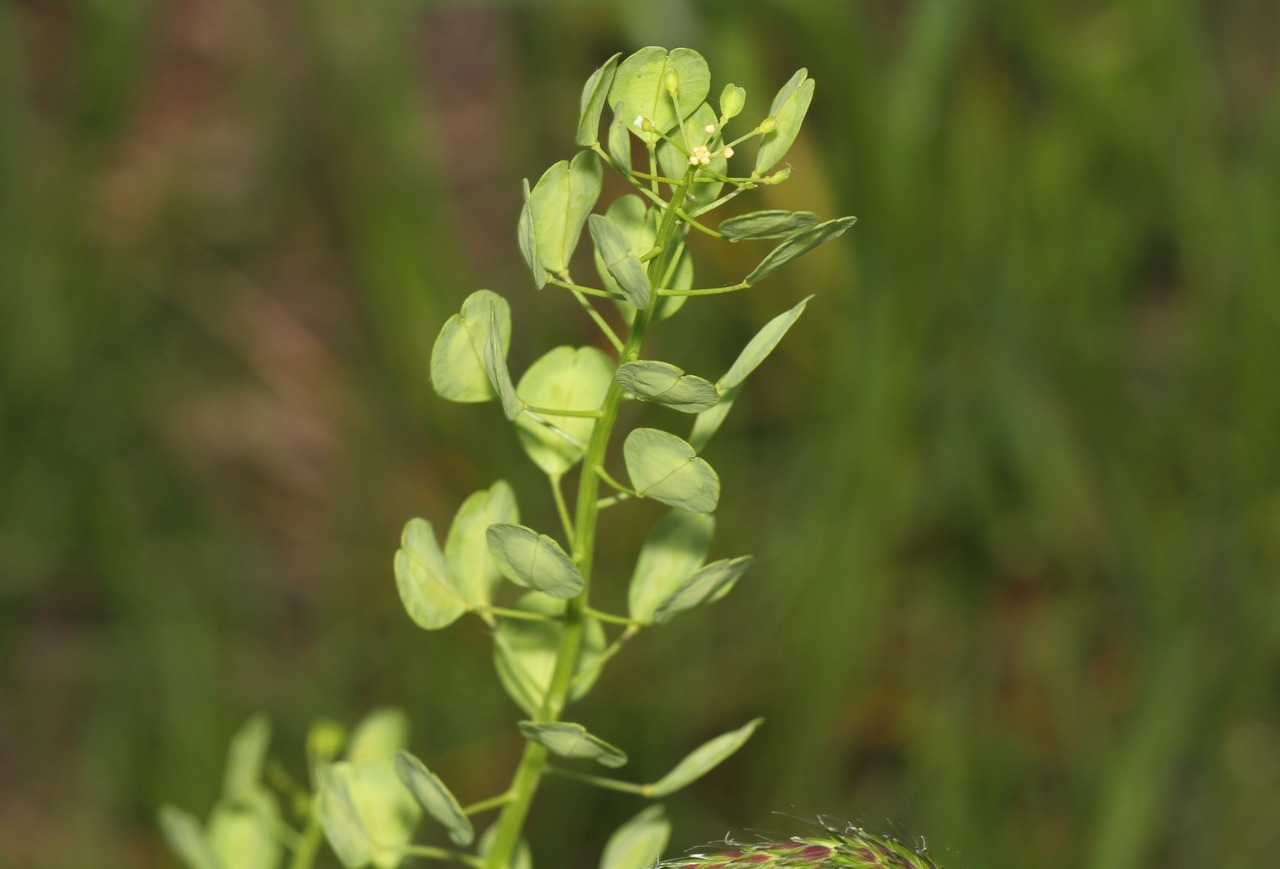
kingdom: Plantae
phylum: Tracheophyta
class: Magnoliopsida
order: Brassicales
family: Brassicaceae
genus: Thlaspi
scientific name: Thlaspi arvense
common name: Field pennycress
